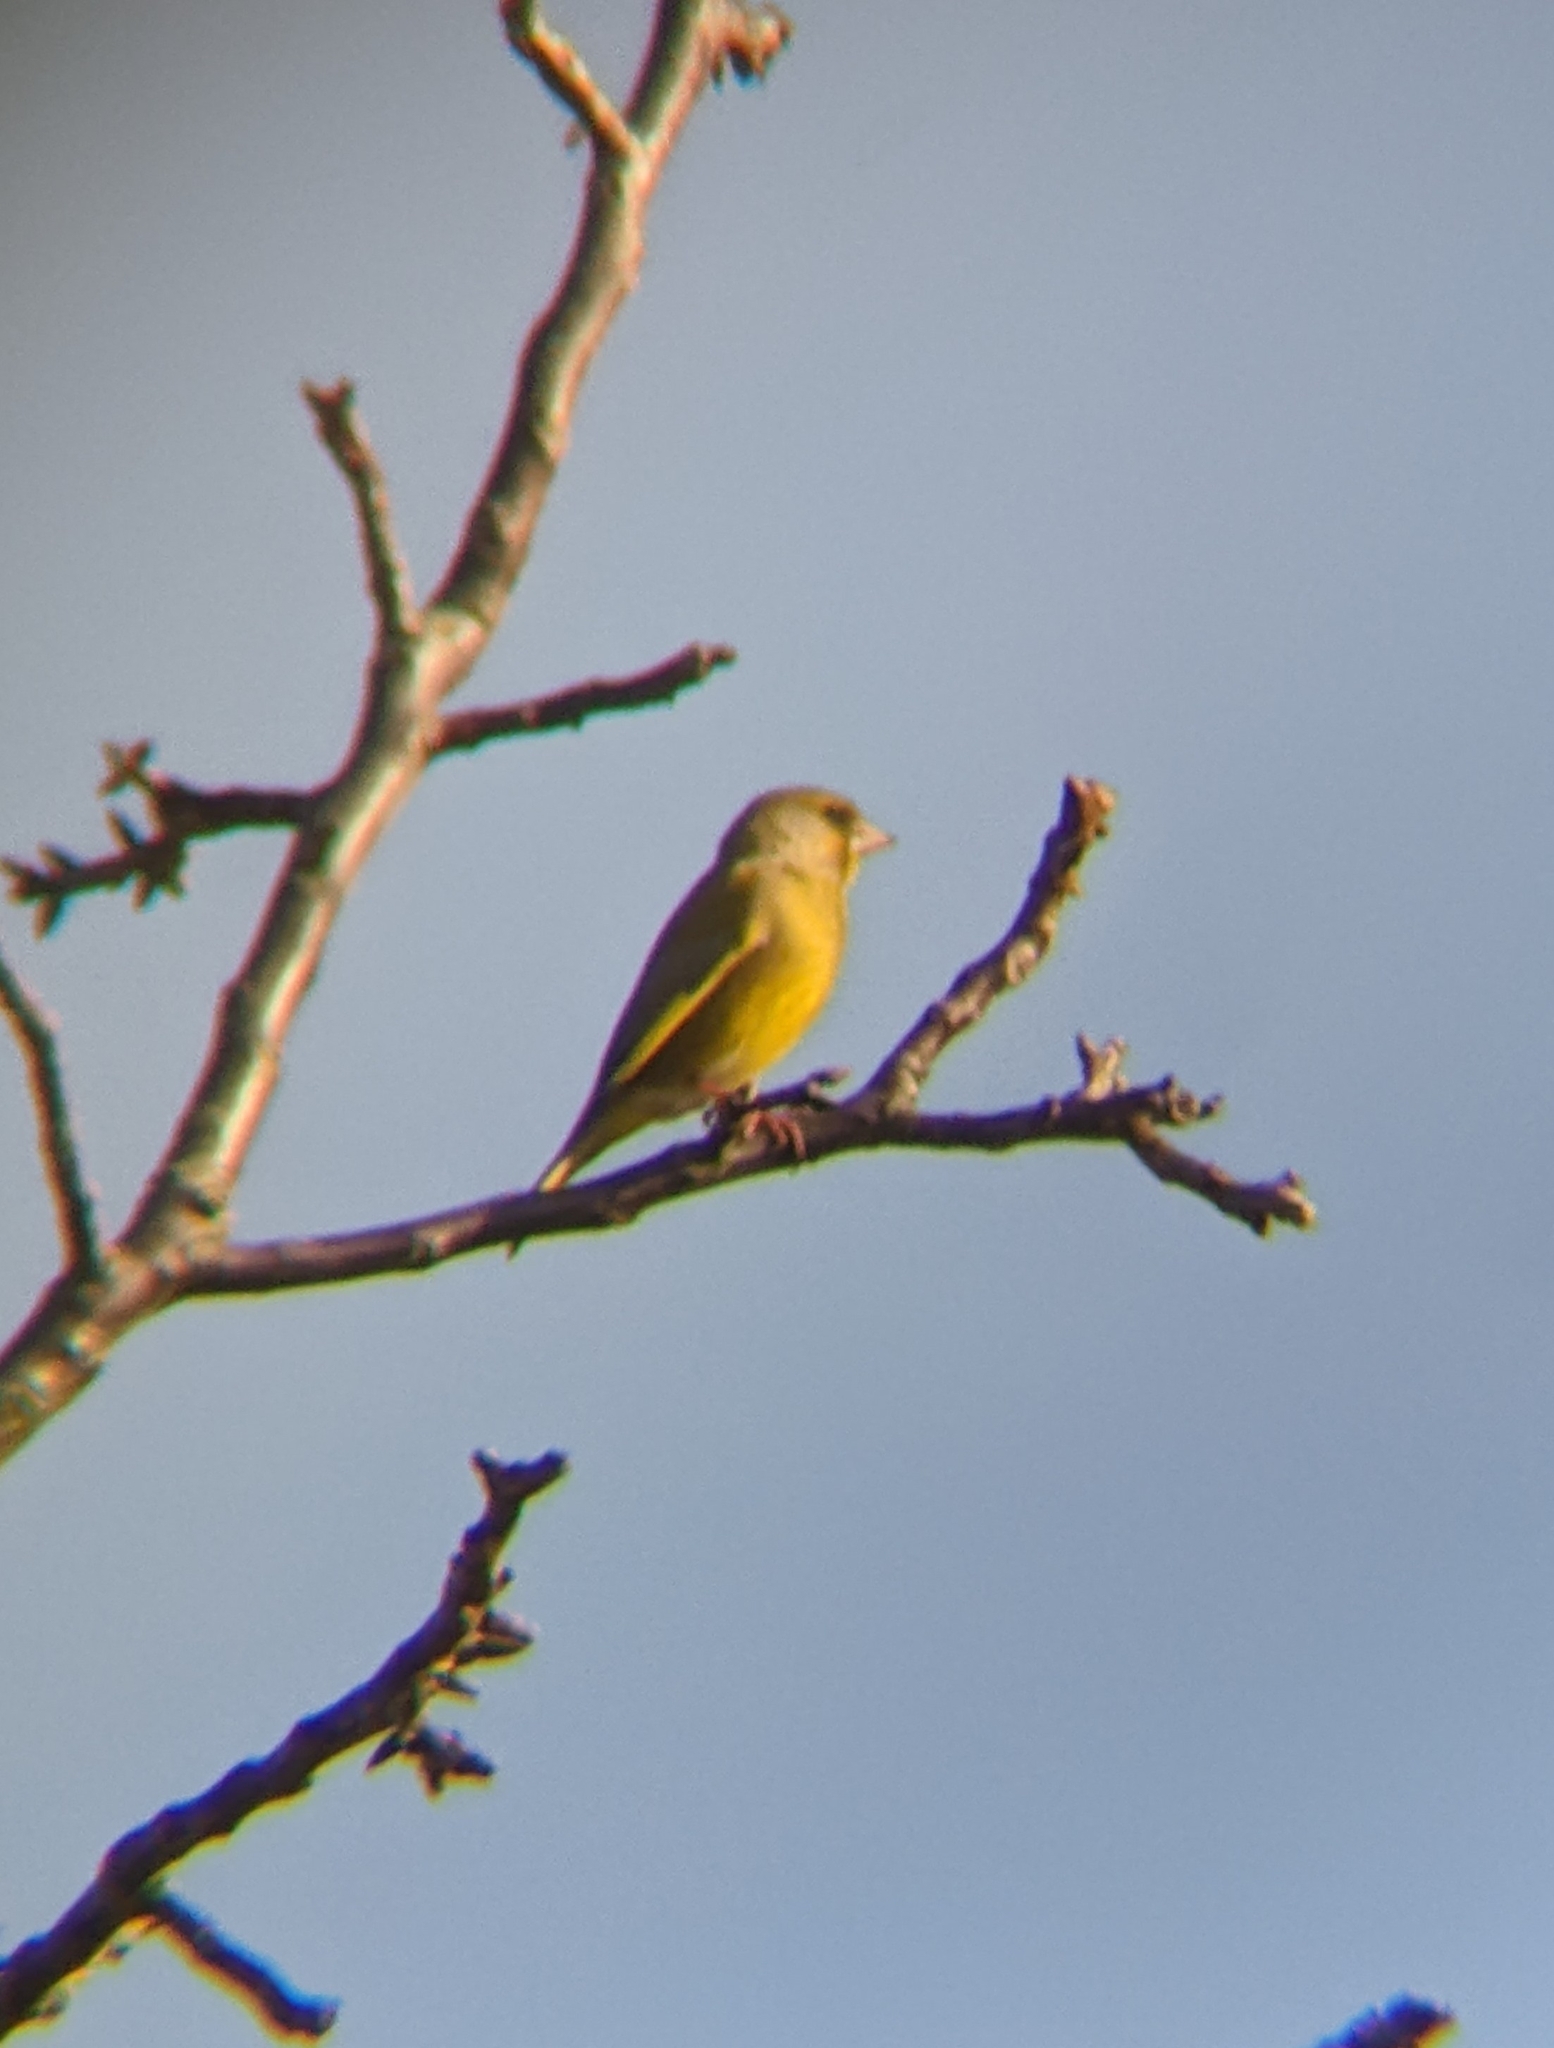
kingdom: Plantae
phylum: Tracheophyta
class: Liliopsida
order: Poales
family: Poaceae
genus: Chloris
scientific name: Chloris chloris
